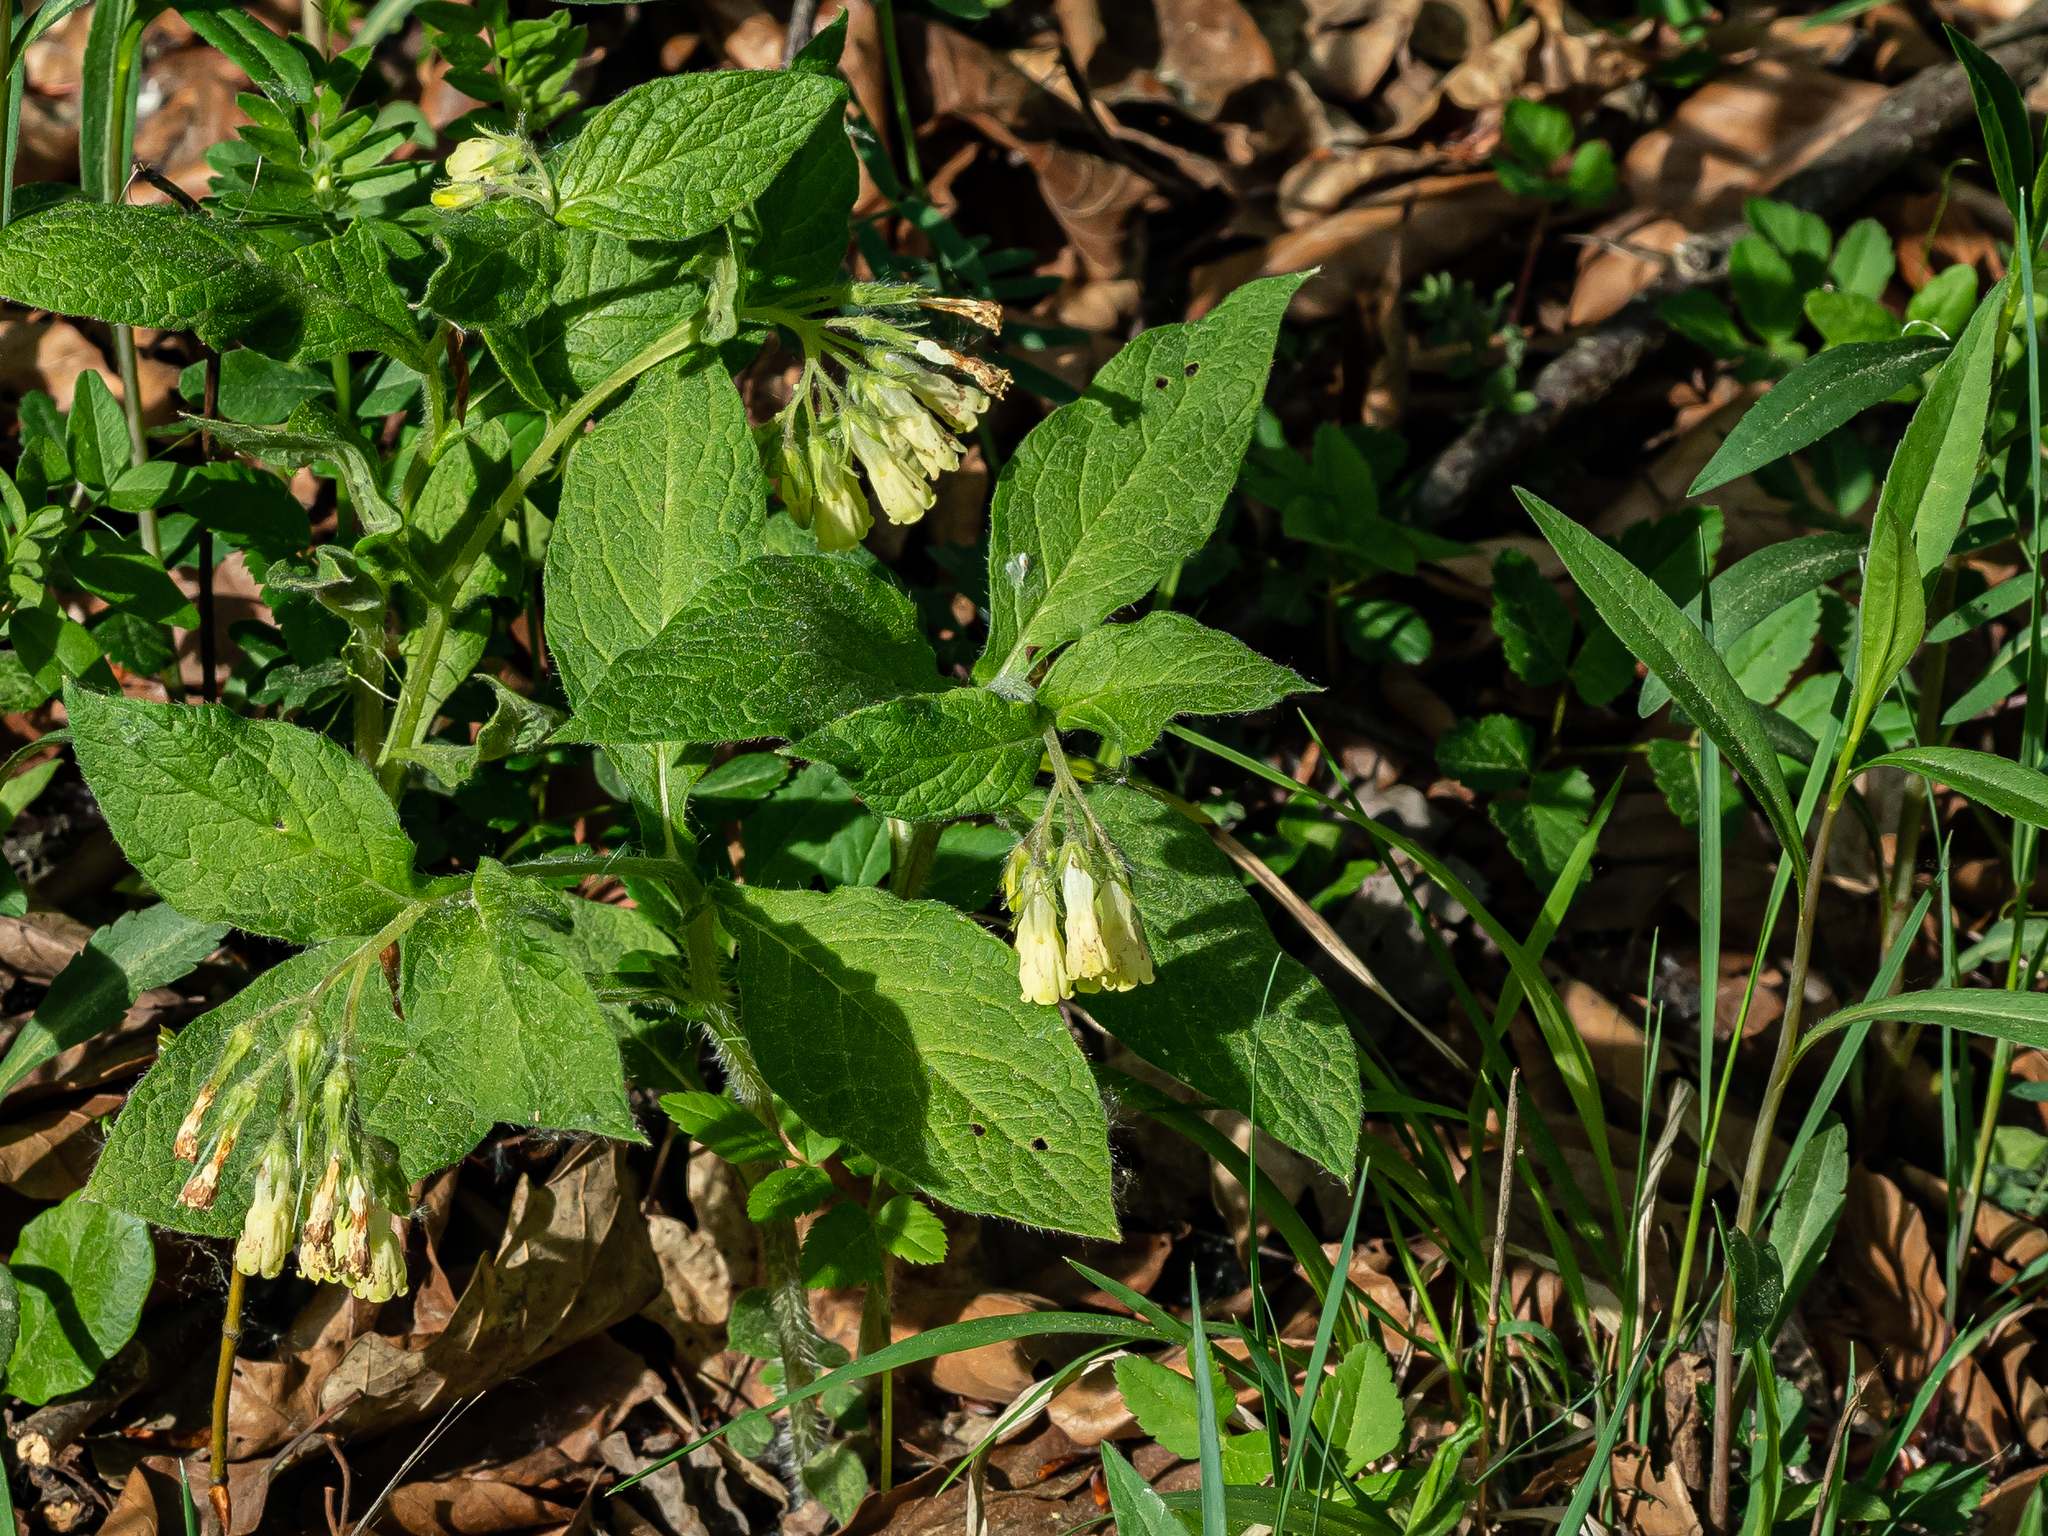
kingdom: Plantae
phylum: Tracheophyta
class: Magnoliopsida
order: Boraginales
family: Boraginaceae
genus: Symphytum
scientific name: Symphytum tuberosum
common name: Tuberous comfrey
